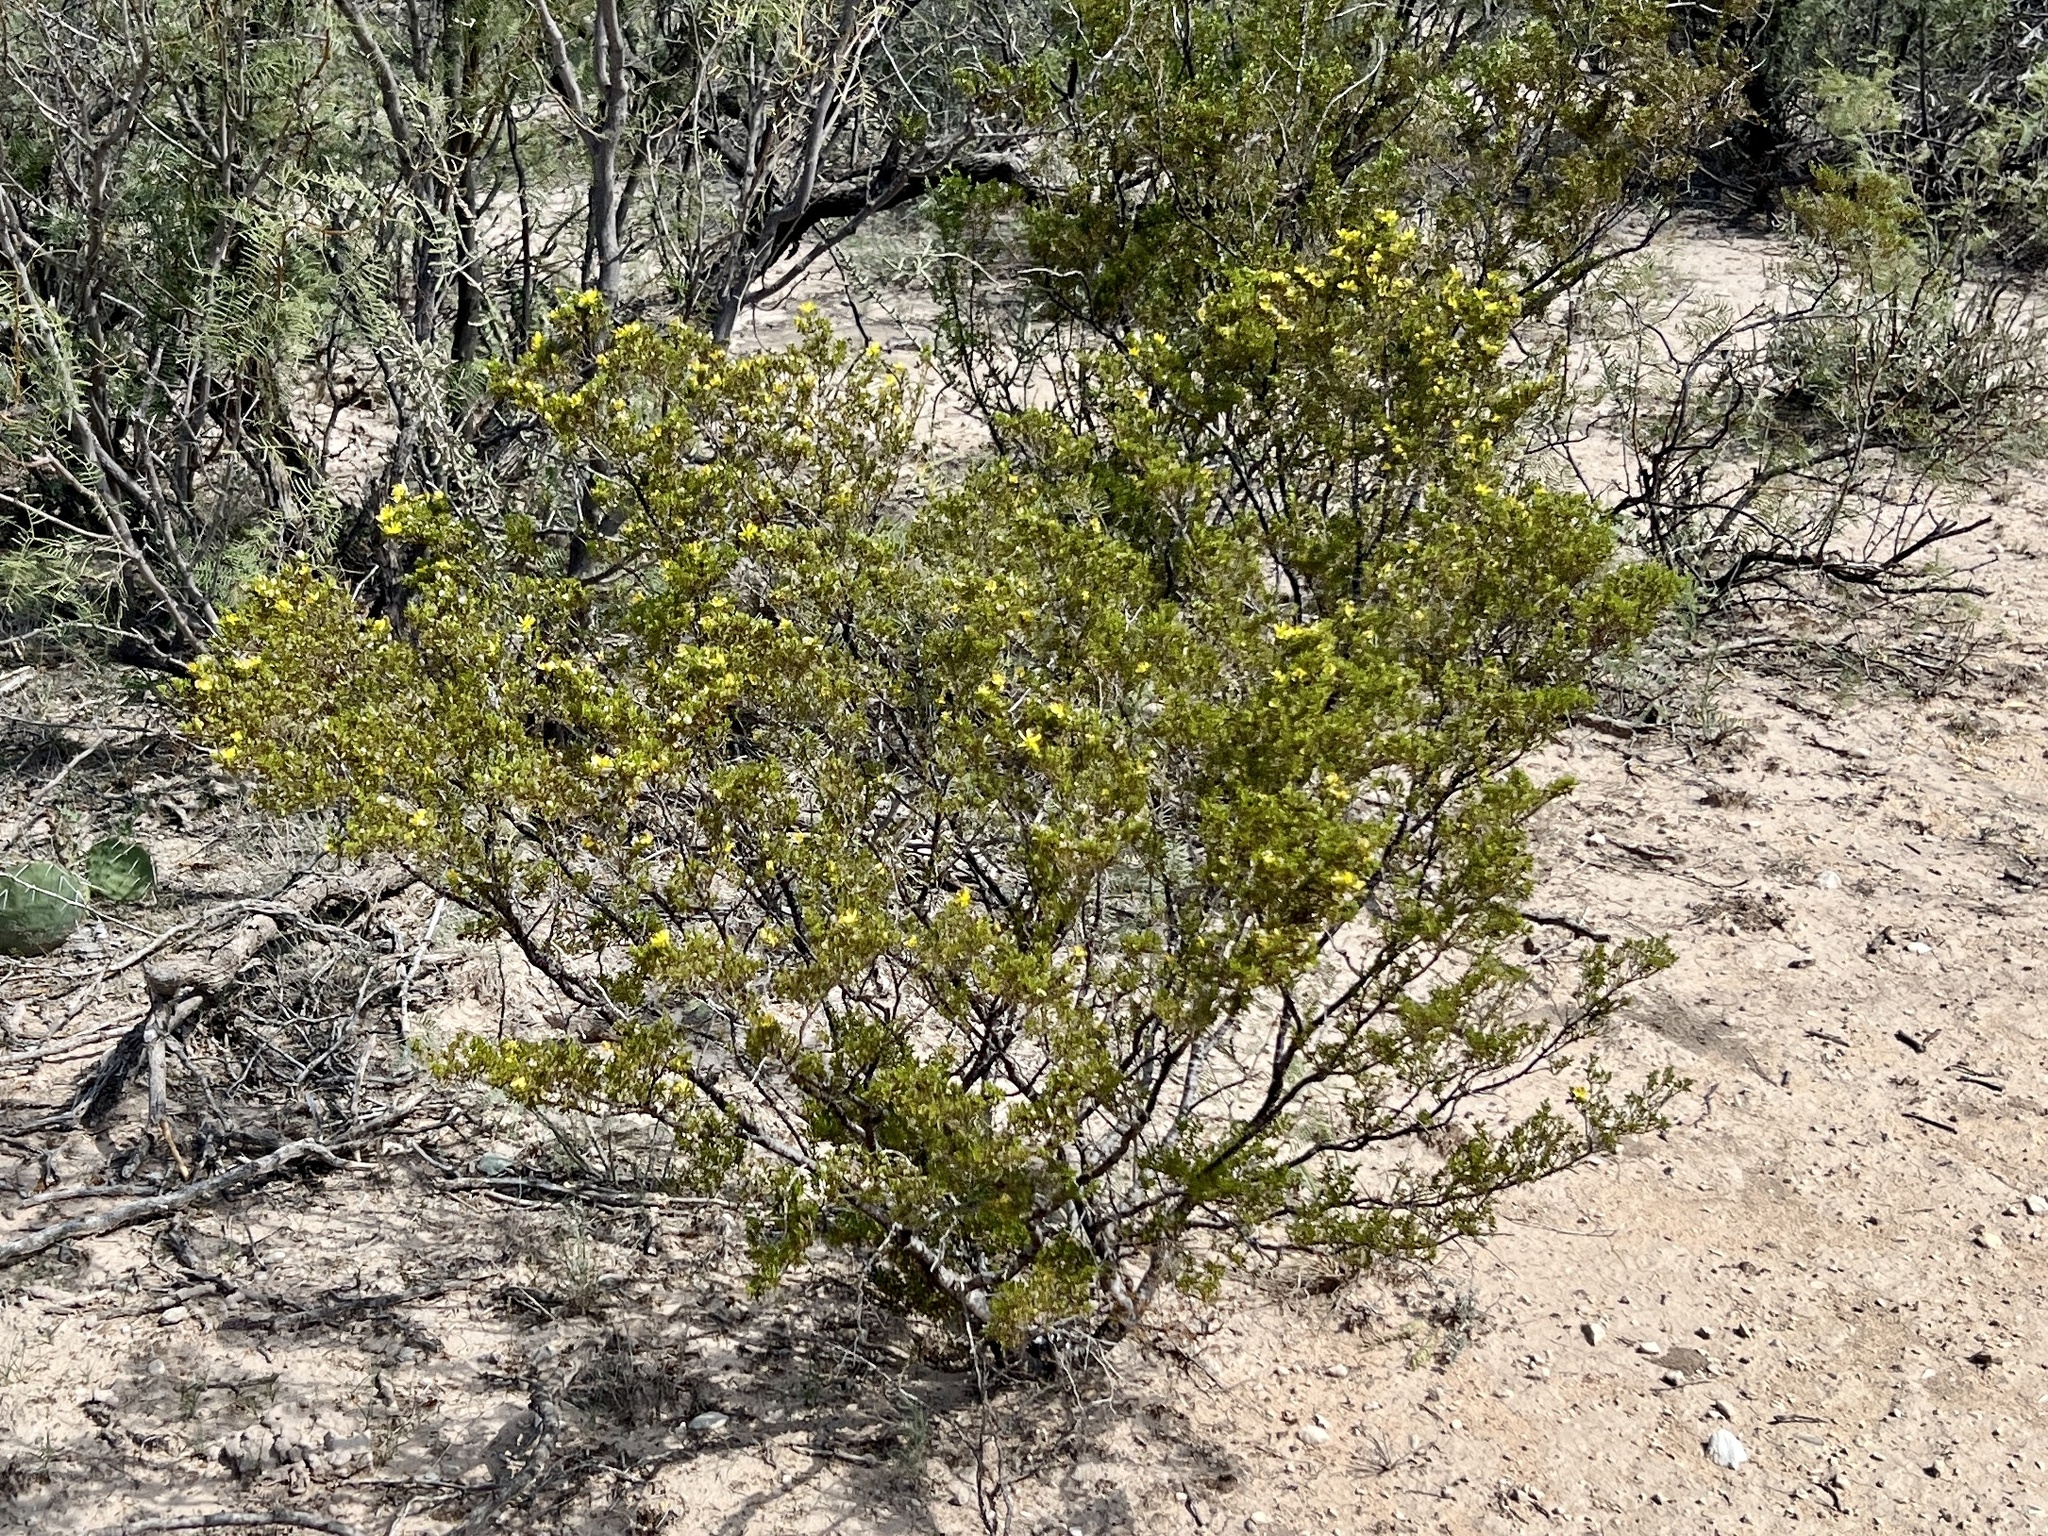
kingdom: Plantae
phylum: Tracheophyta
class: Magnoliopsida
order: Zygophyllales
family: Zygophyllaceae
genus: Larrea
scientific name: Larrea tridentata
